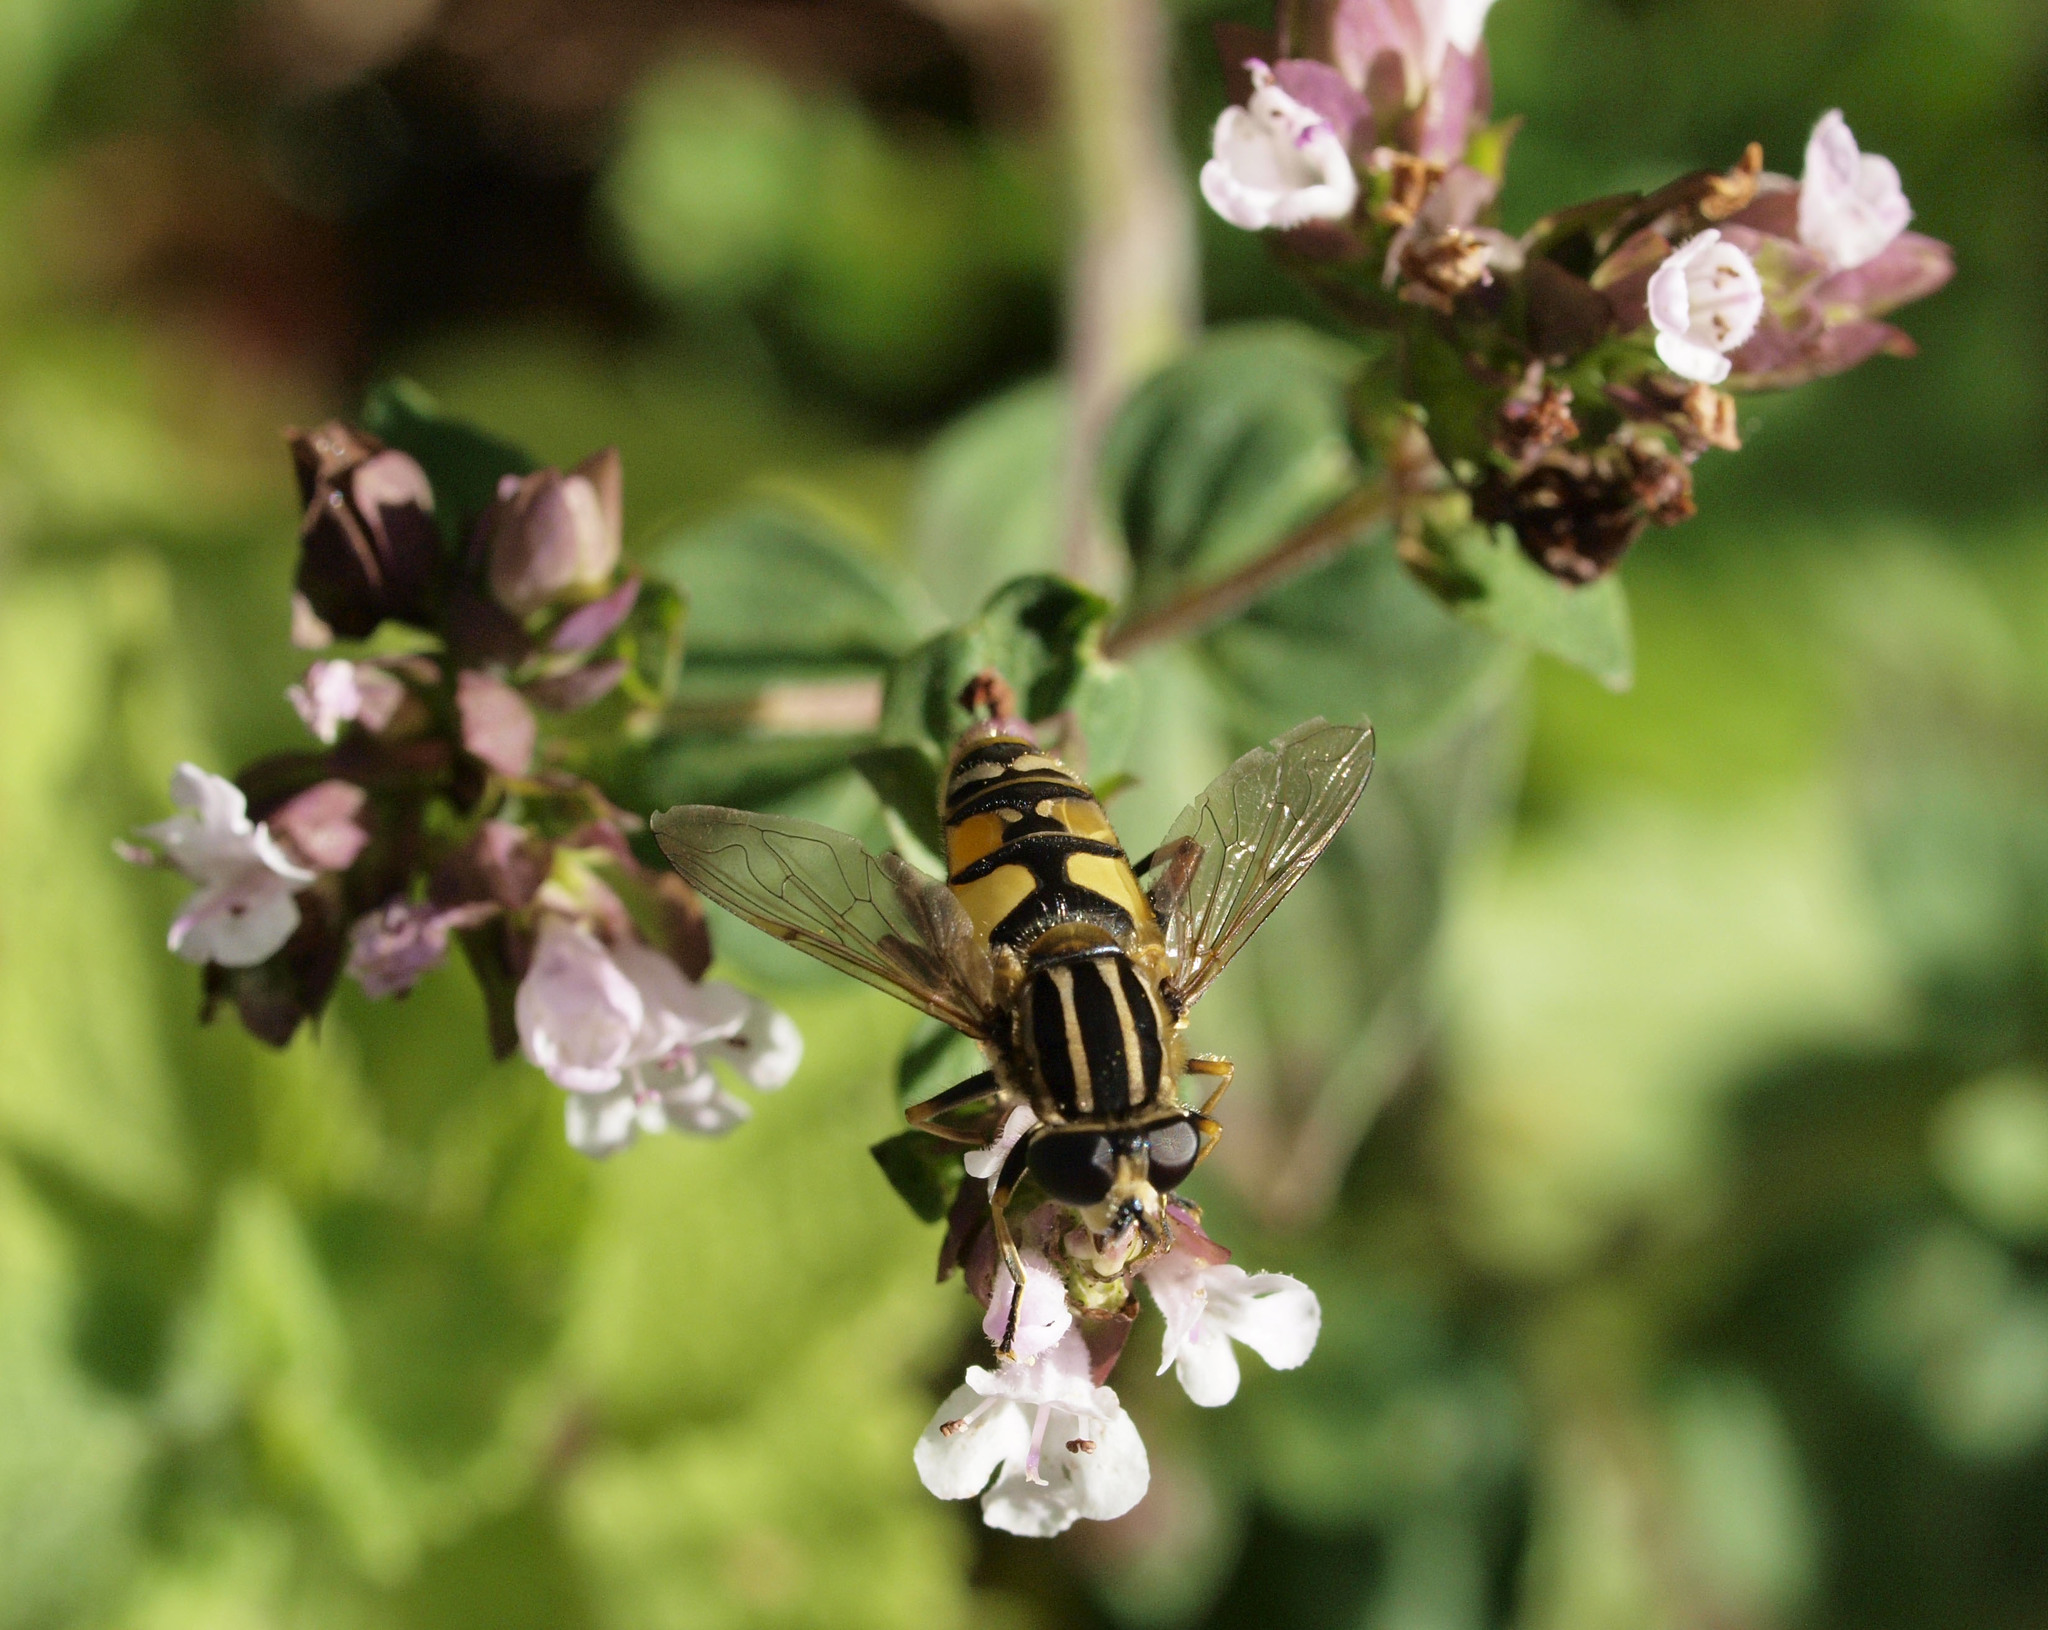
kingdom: Animalia
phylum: Arthropoda
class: Insecta
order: Diptera
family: Syrphidae
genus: Helophilus
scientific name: Helophilus pendulus
